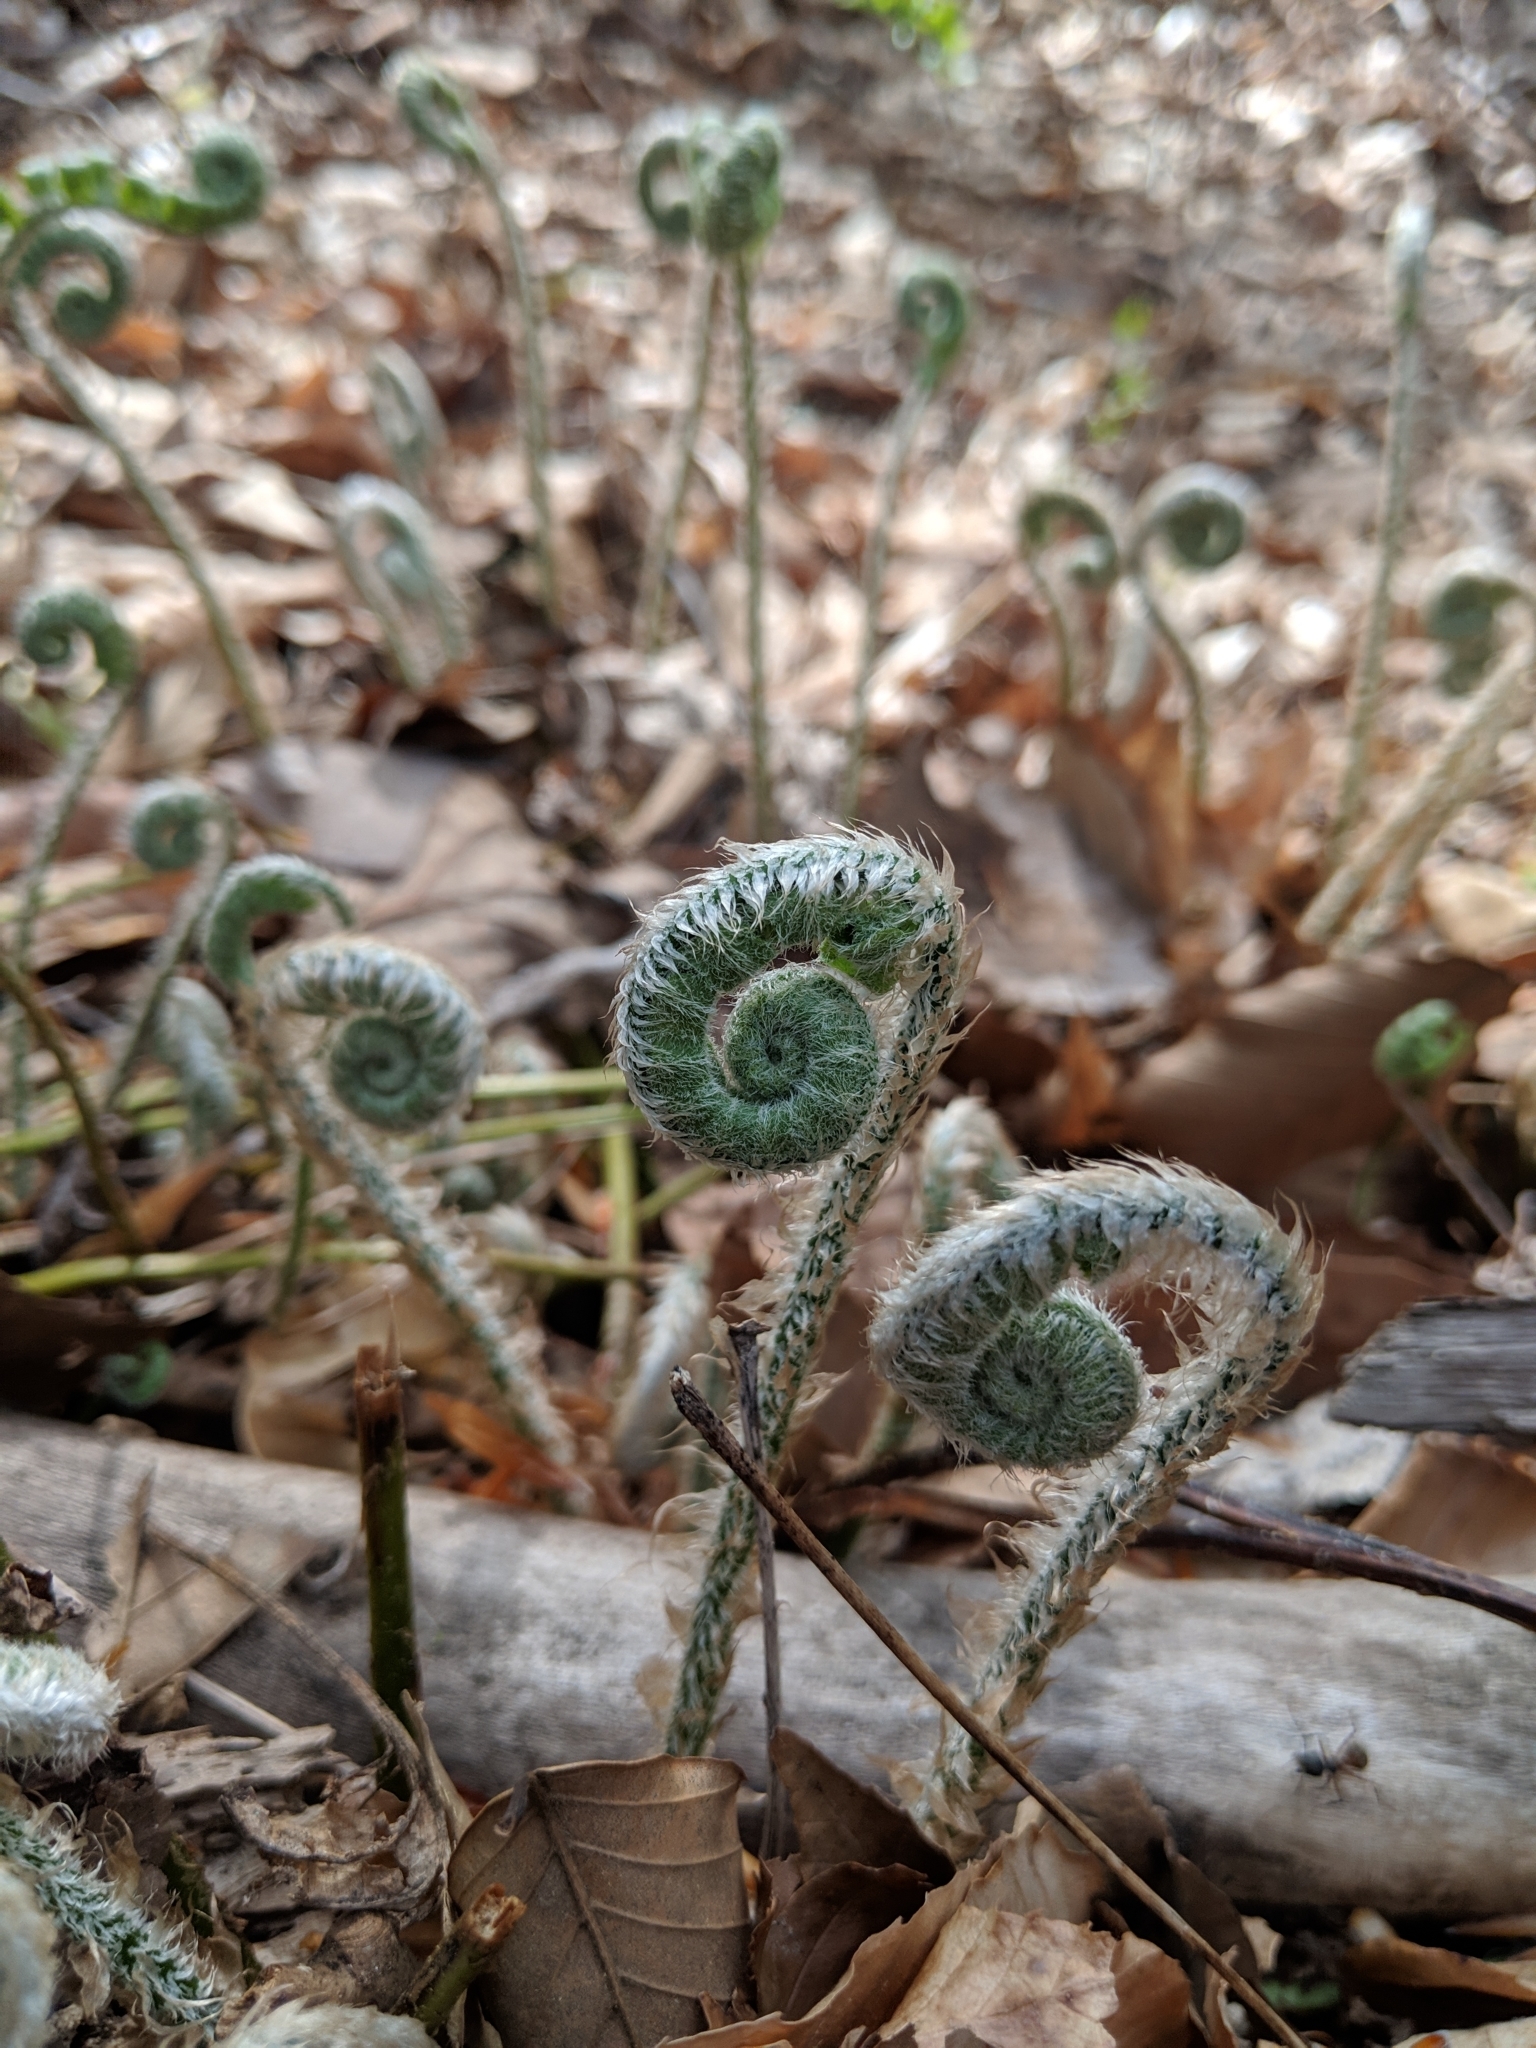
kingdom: Plantae
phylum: Tracheophyta
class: Polypodiopsida
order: Polypodiales
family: Dryopteridaceae
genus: Polystichum
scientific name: Polystichum acrostichoides
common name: Christmas fern
